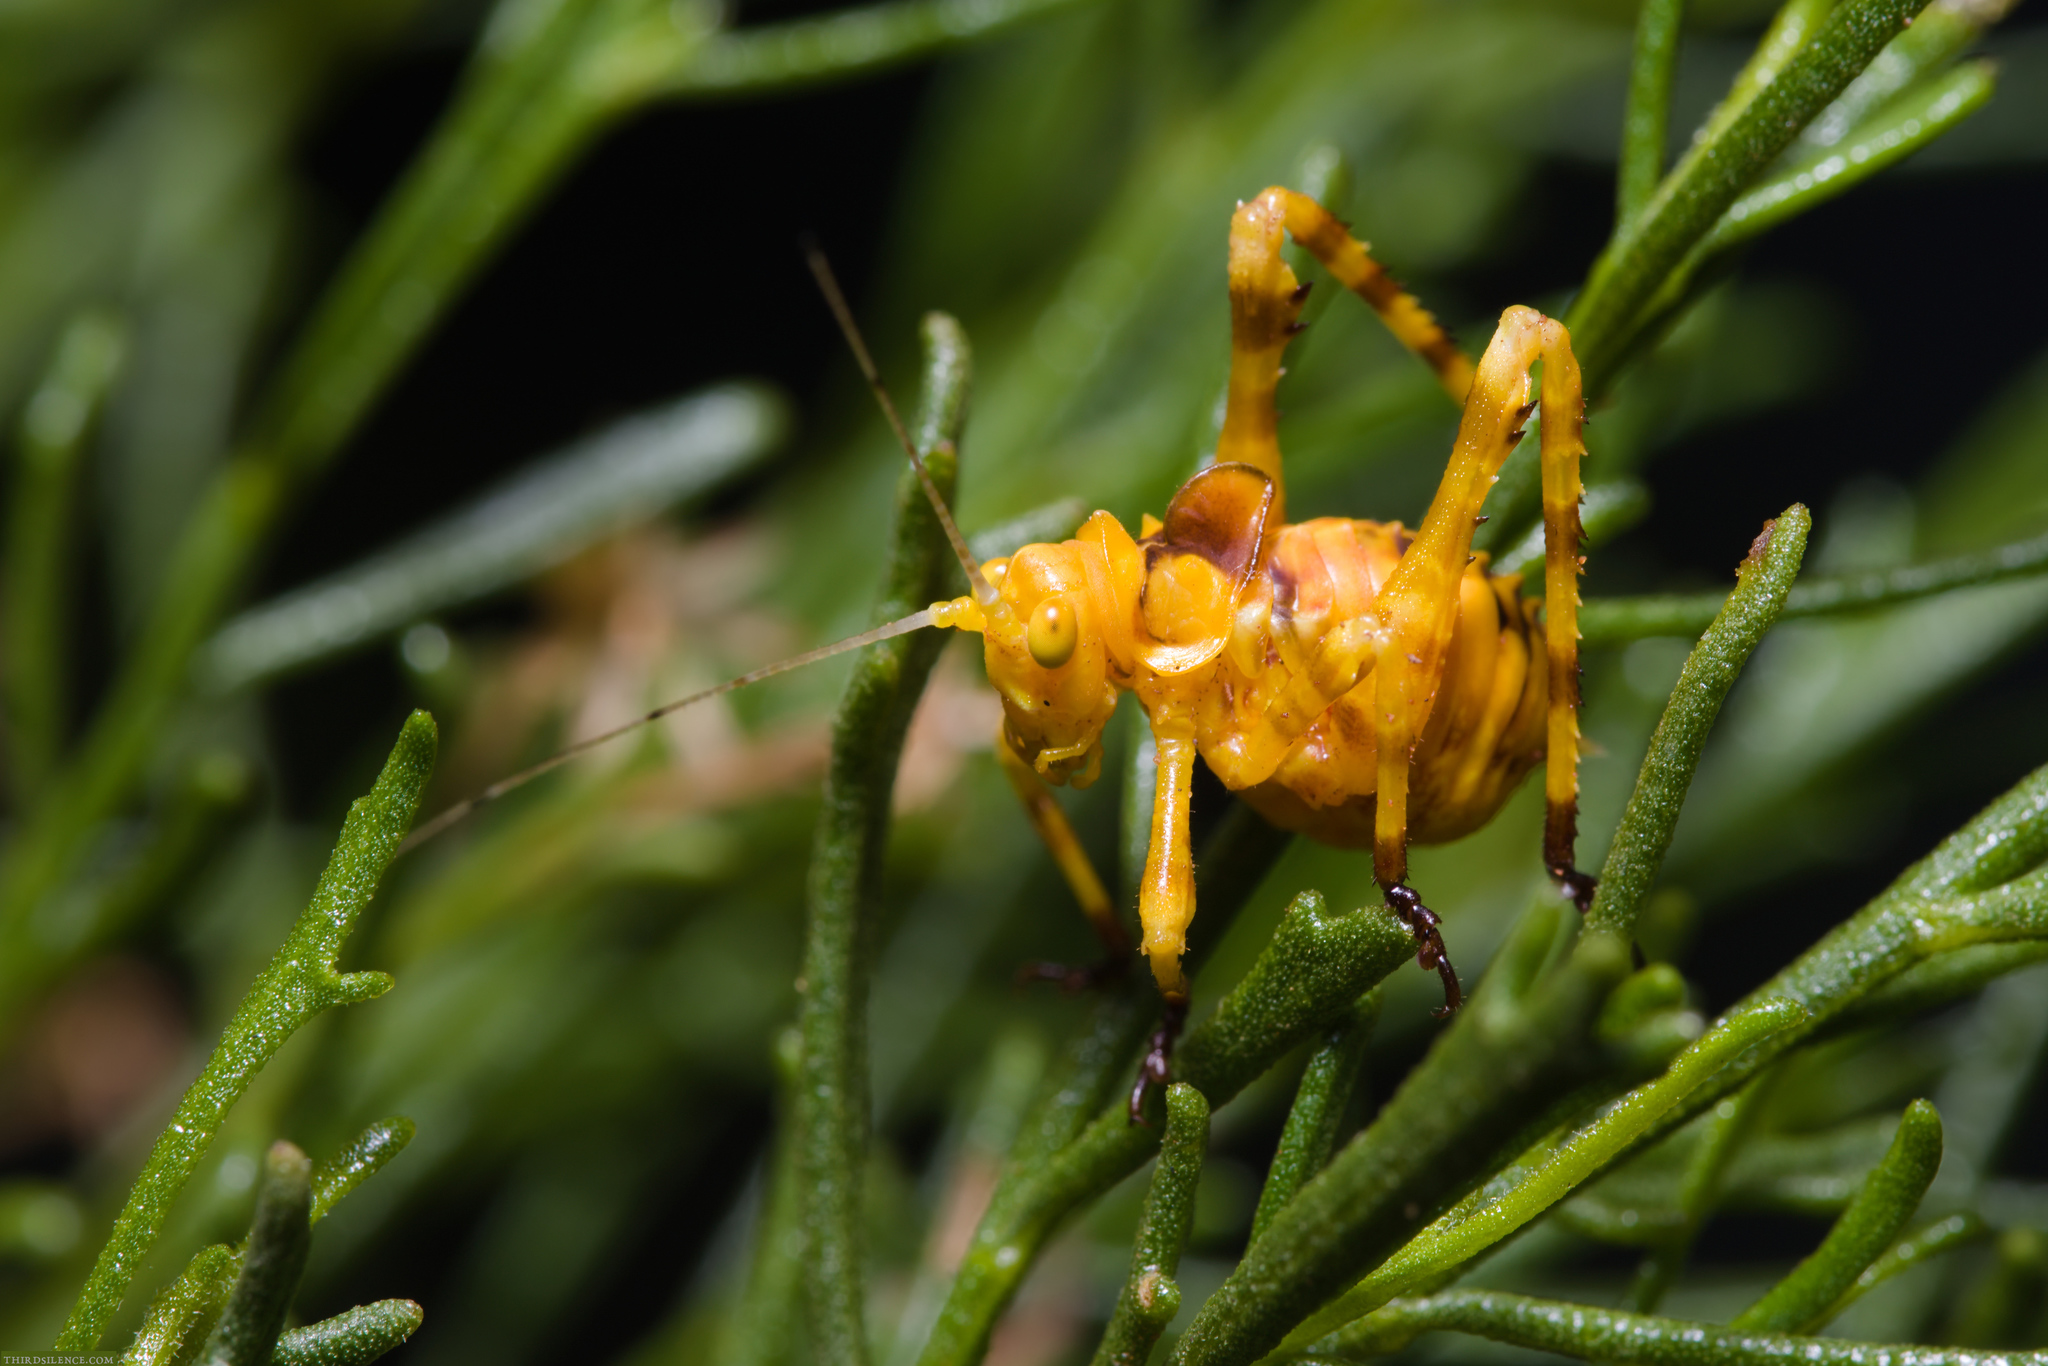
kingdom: Animalia
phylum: Arthropoda
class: Insecta
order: Orthoptera
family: Tettigoniidae
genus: Alectoria
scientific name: Alectoria superba
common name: Australian crested katydid
